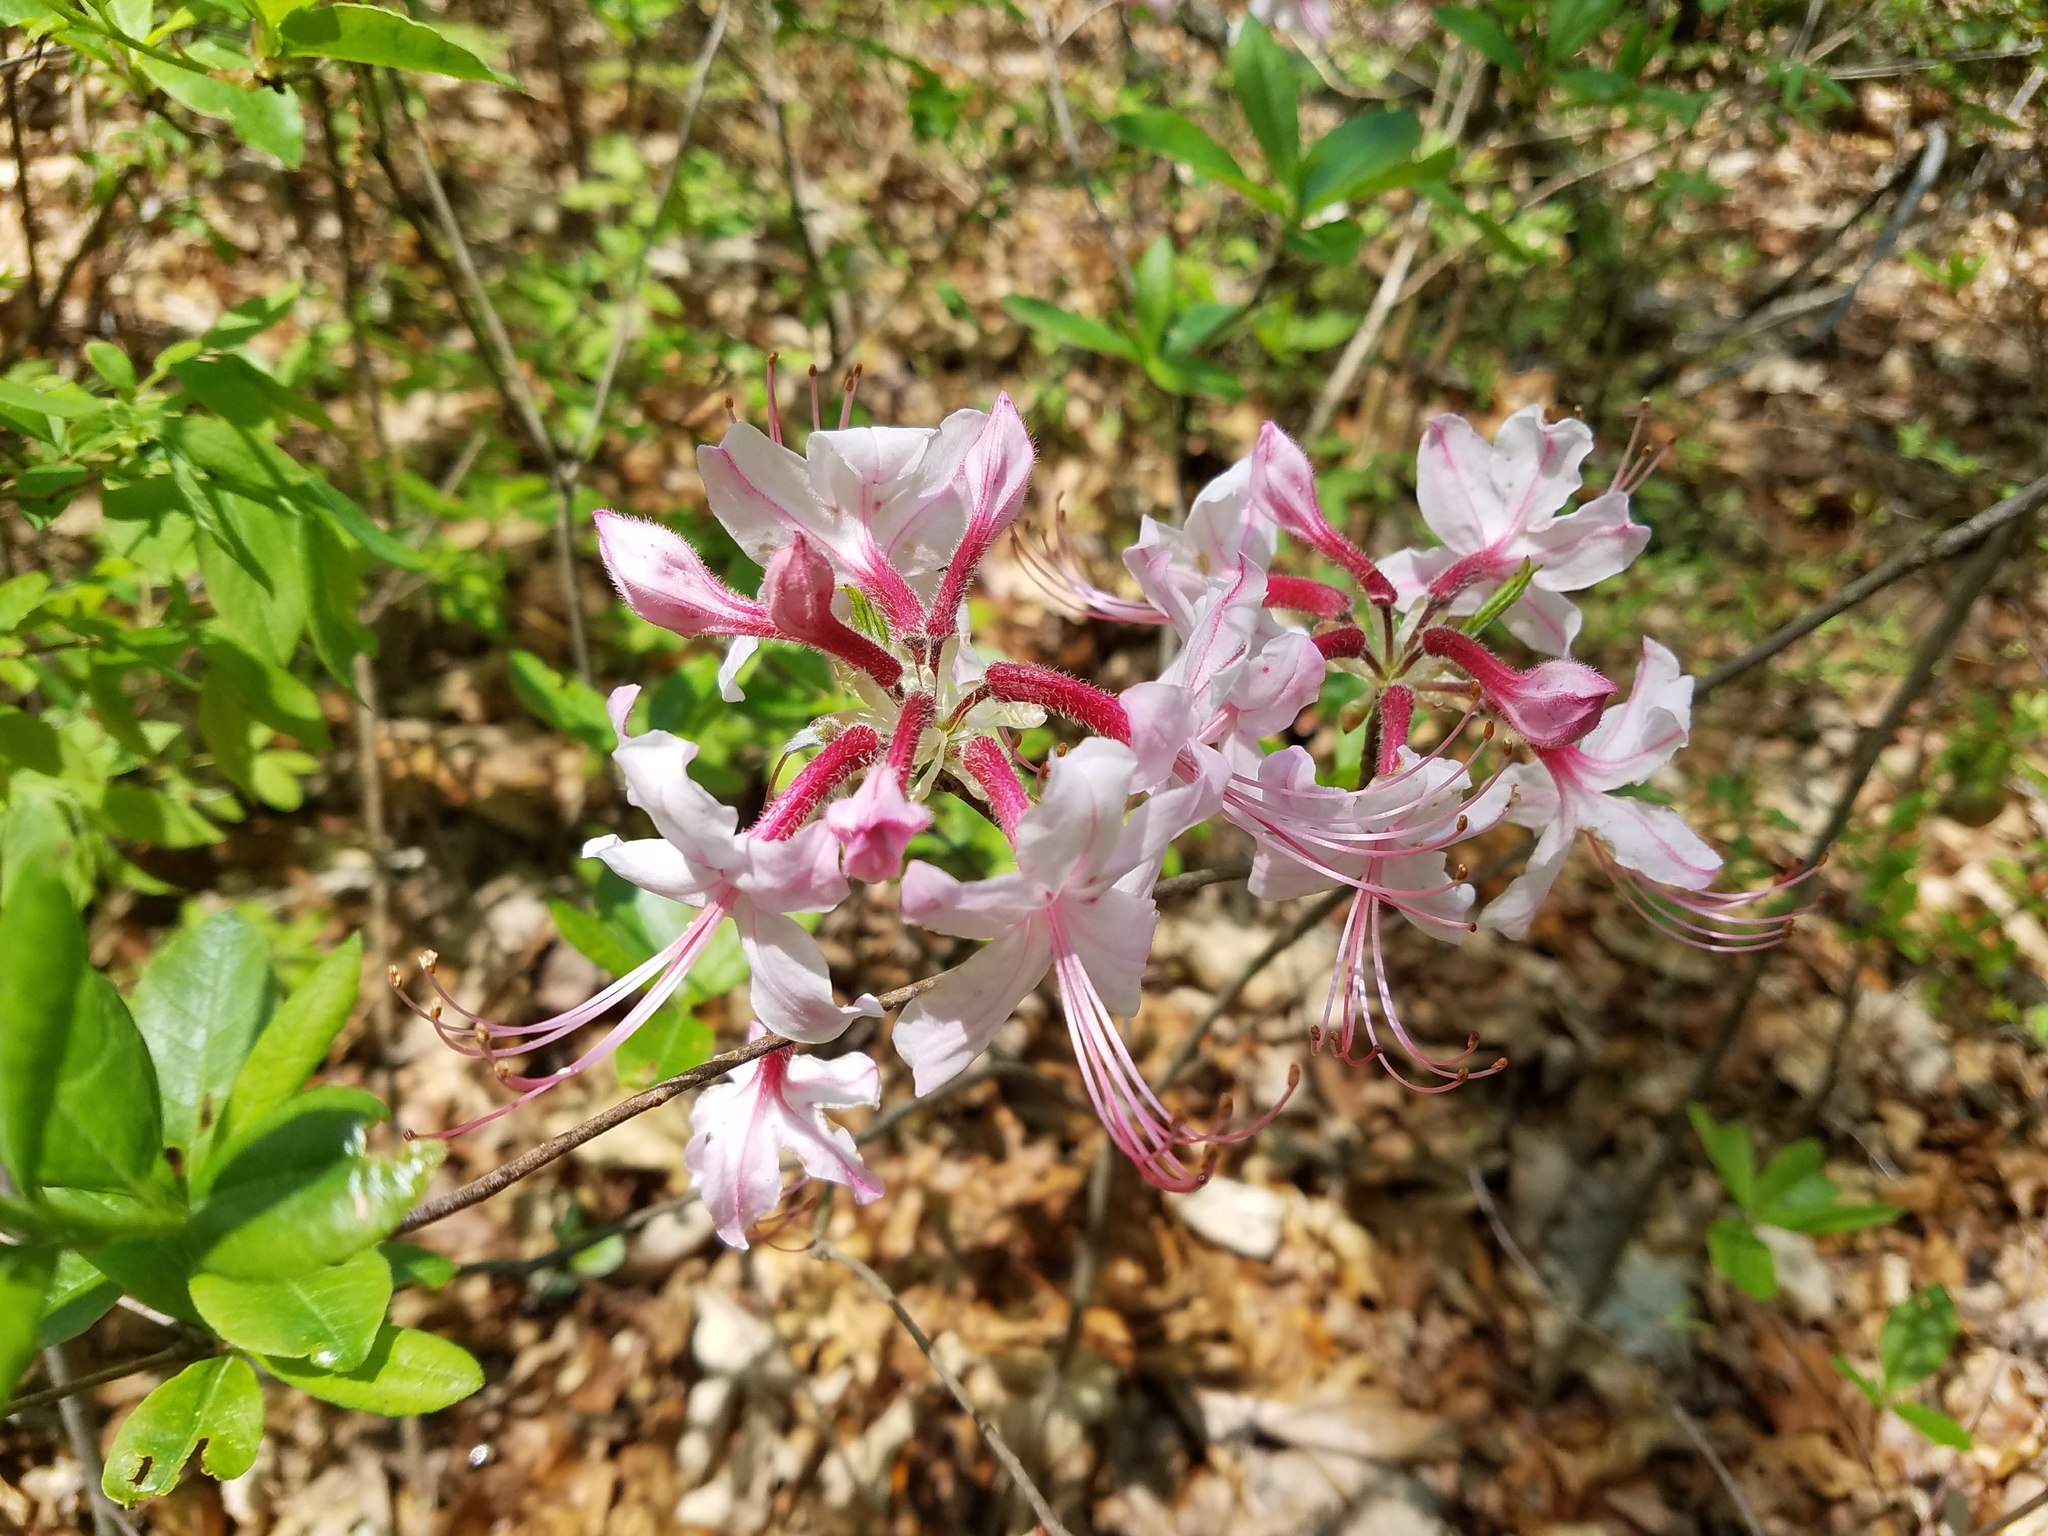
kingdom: Plantae
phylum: Tracheophyta
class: Magnoliopsida
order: Ericales
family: Ericaceae
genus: Rhododendron
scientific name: Rhododendron periclymenoides
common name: Election-pink
